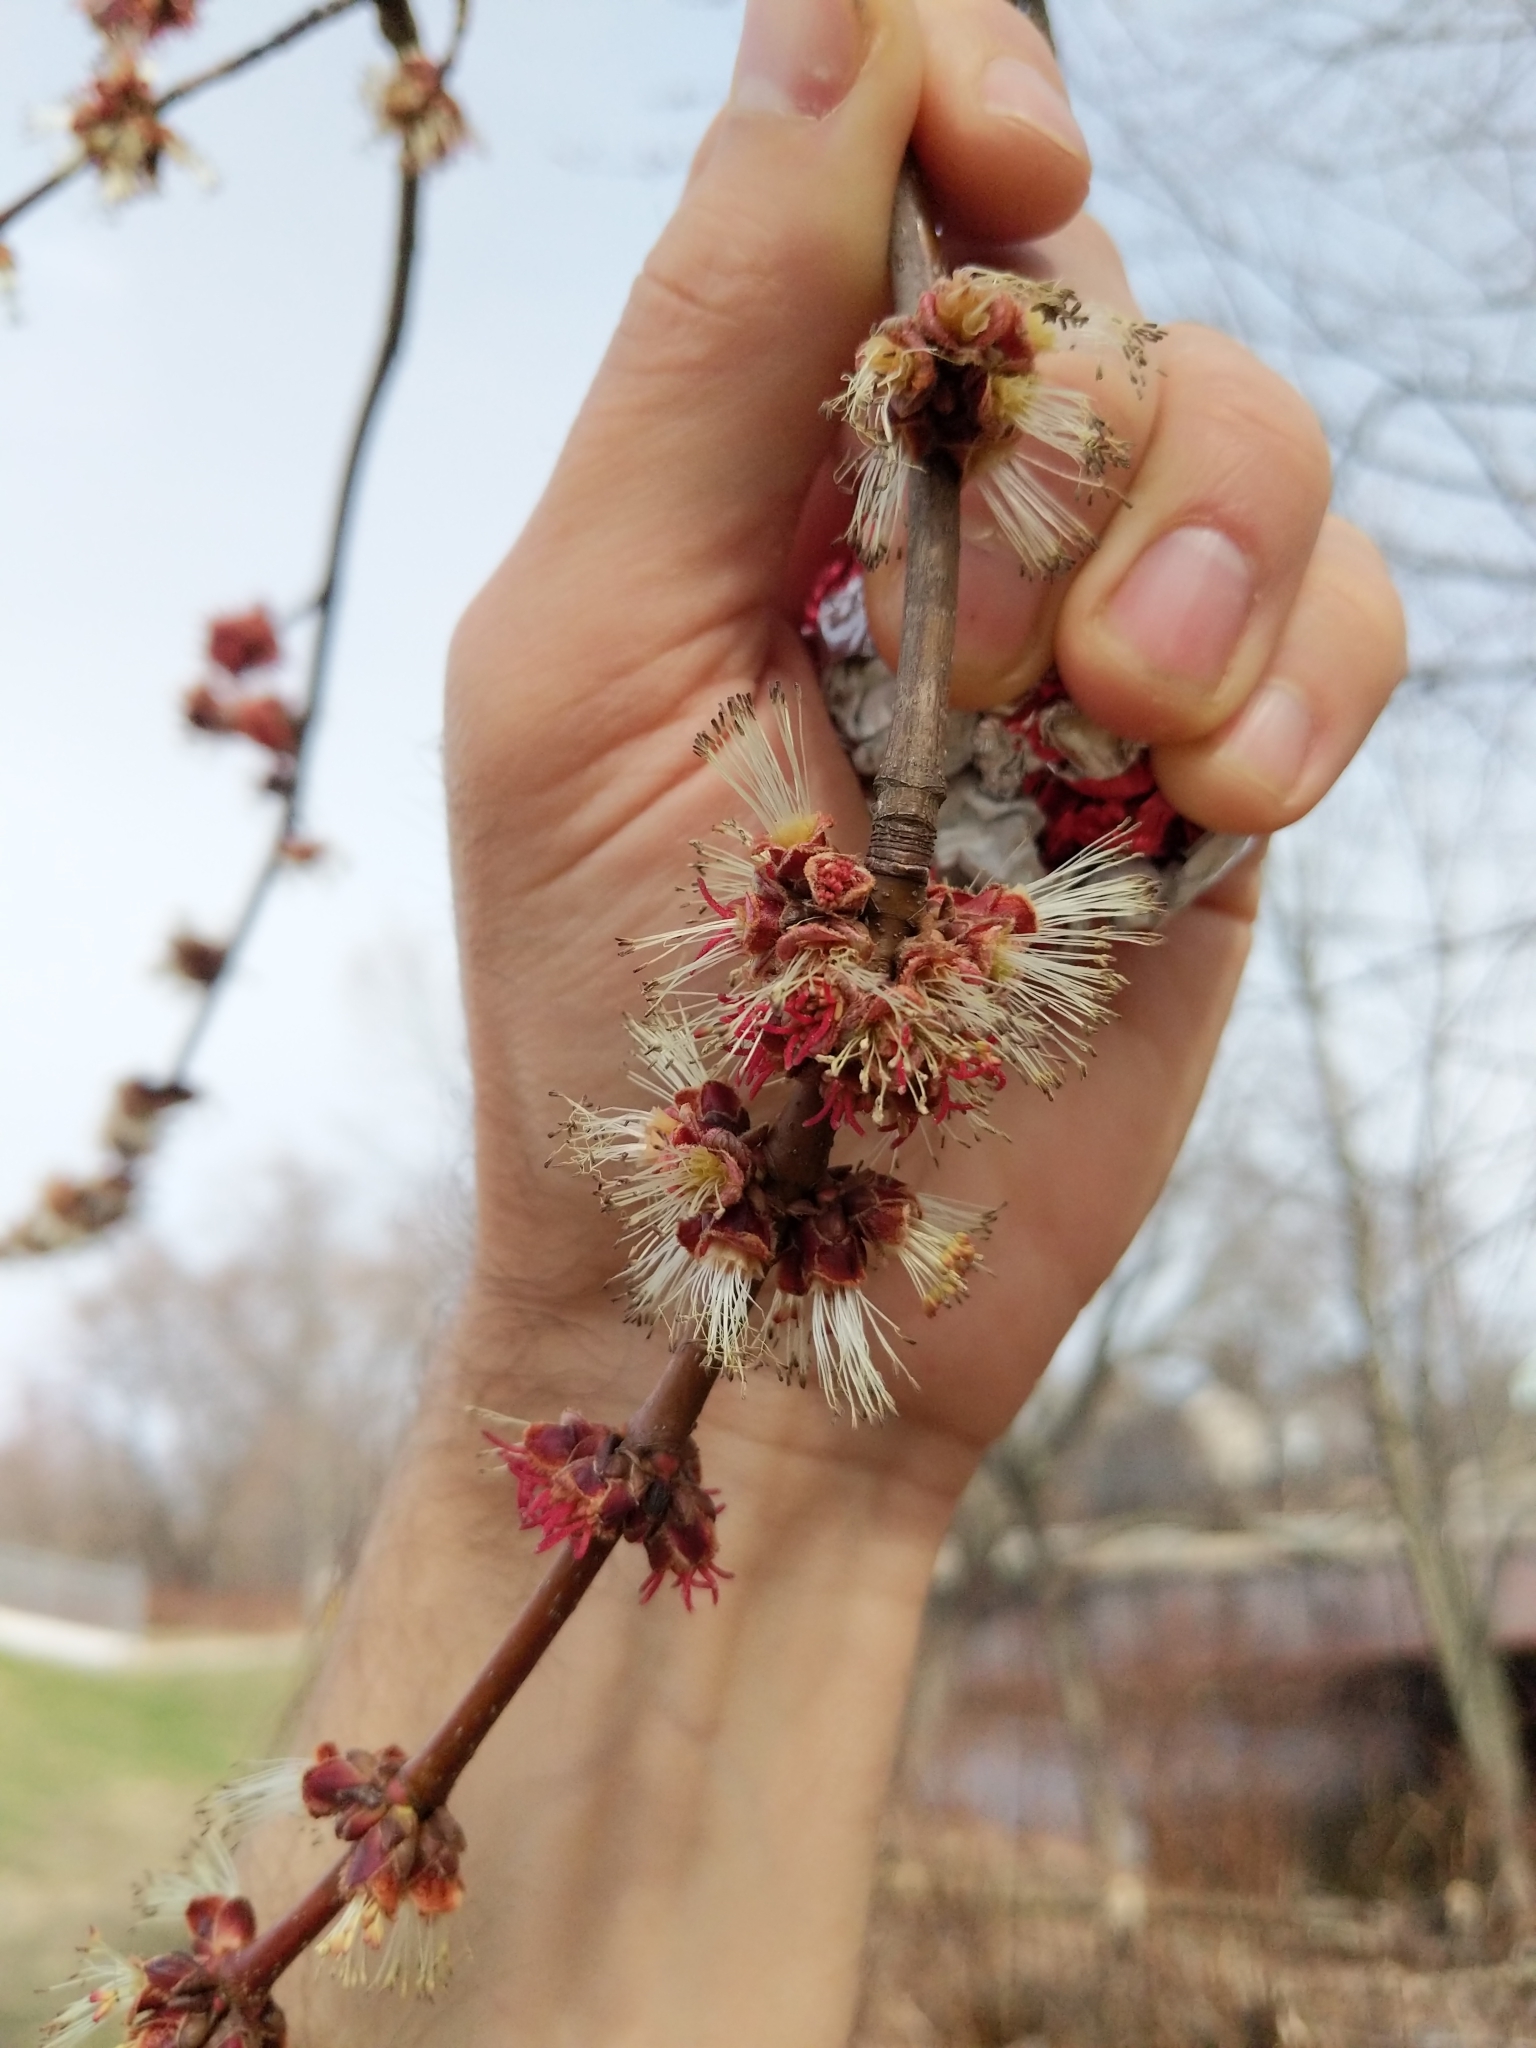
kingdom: Plantae
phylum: Tracheophyta
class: Magnoliopsida
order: Sapindales
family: Sapindaceae
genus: Acer
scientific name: Acer saccharinum
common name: Silver maple
